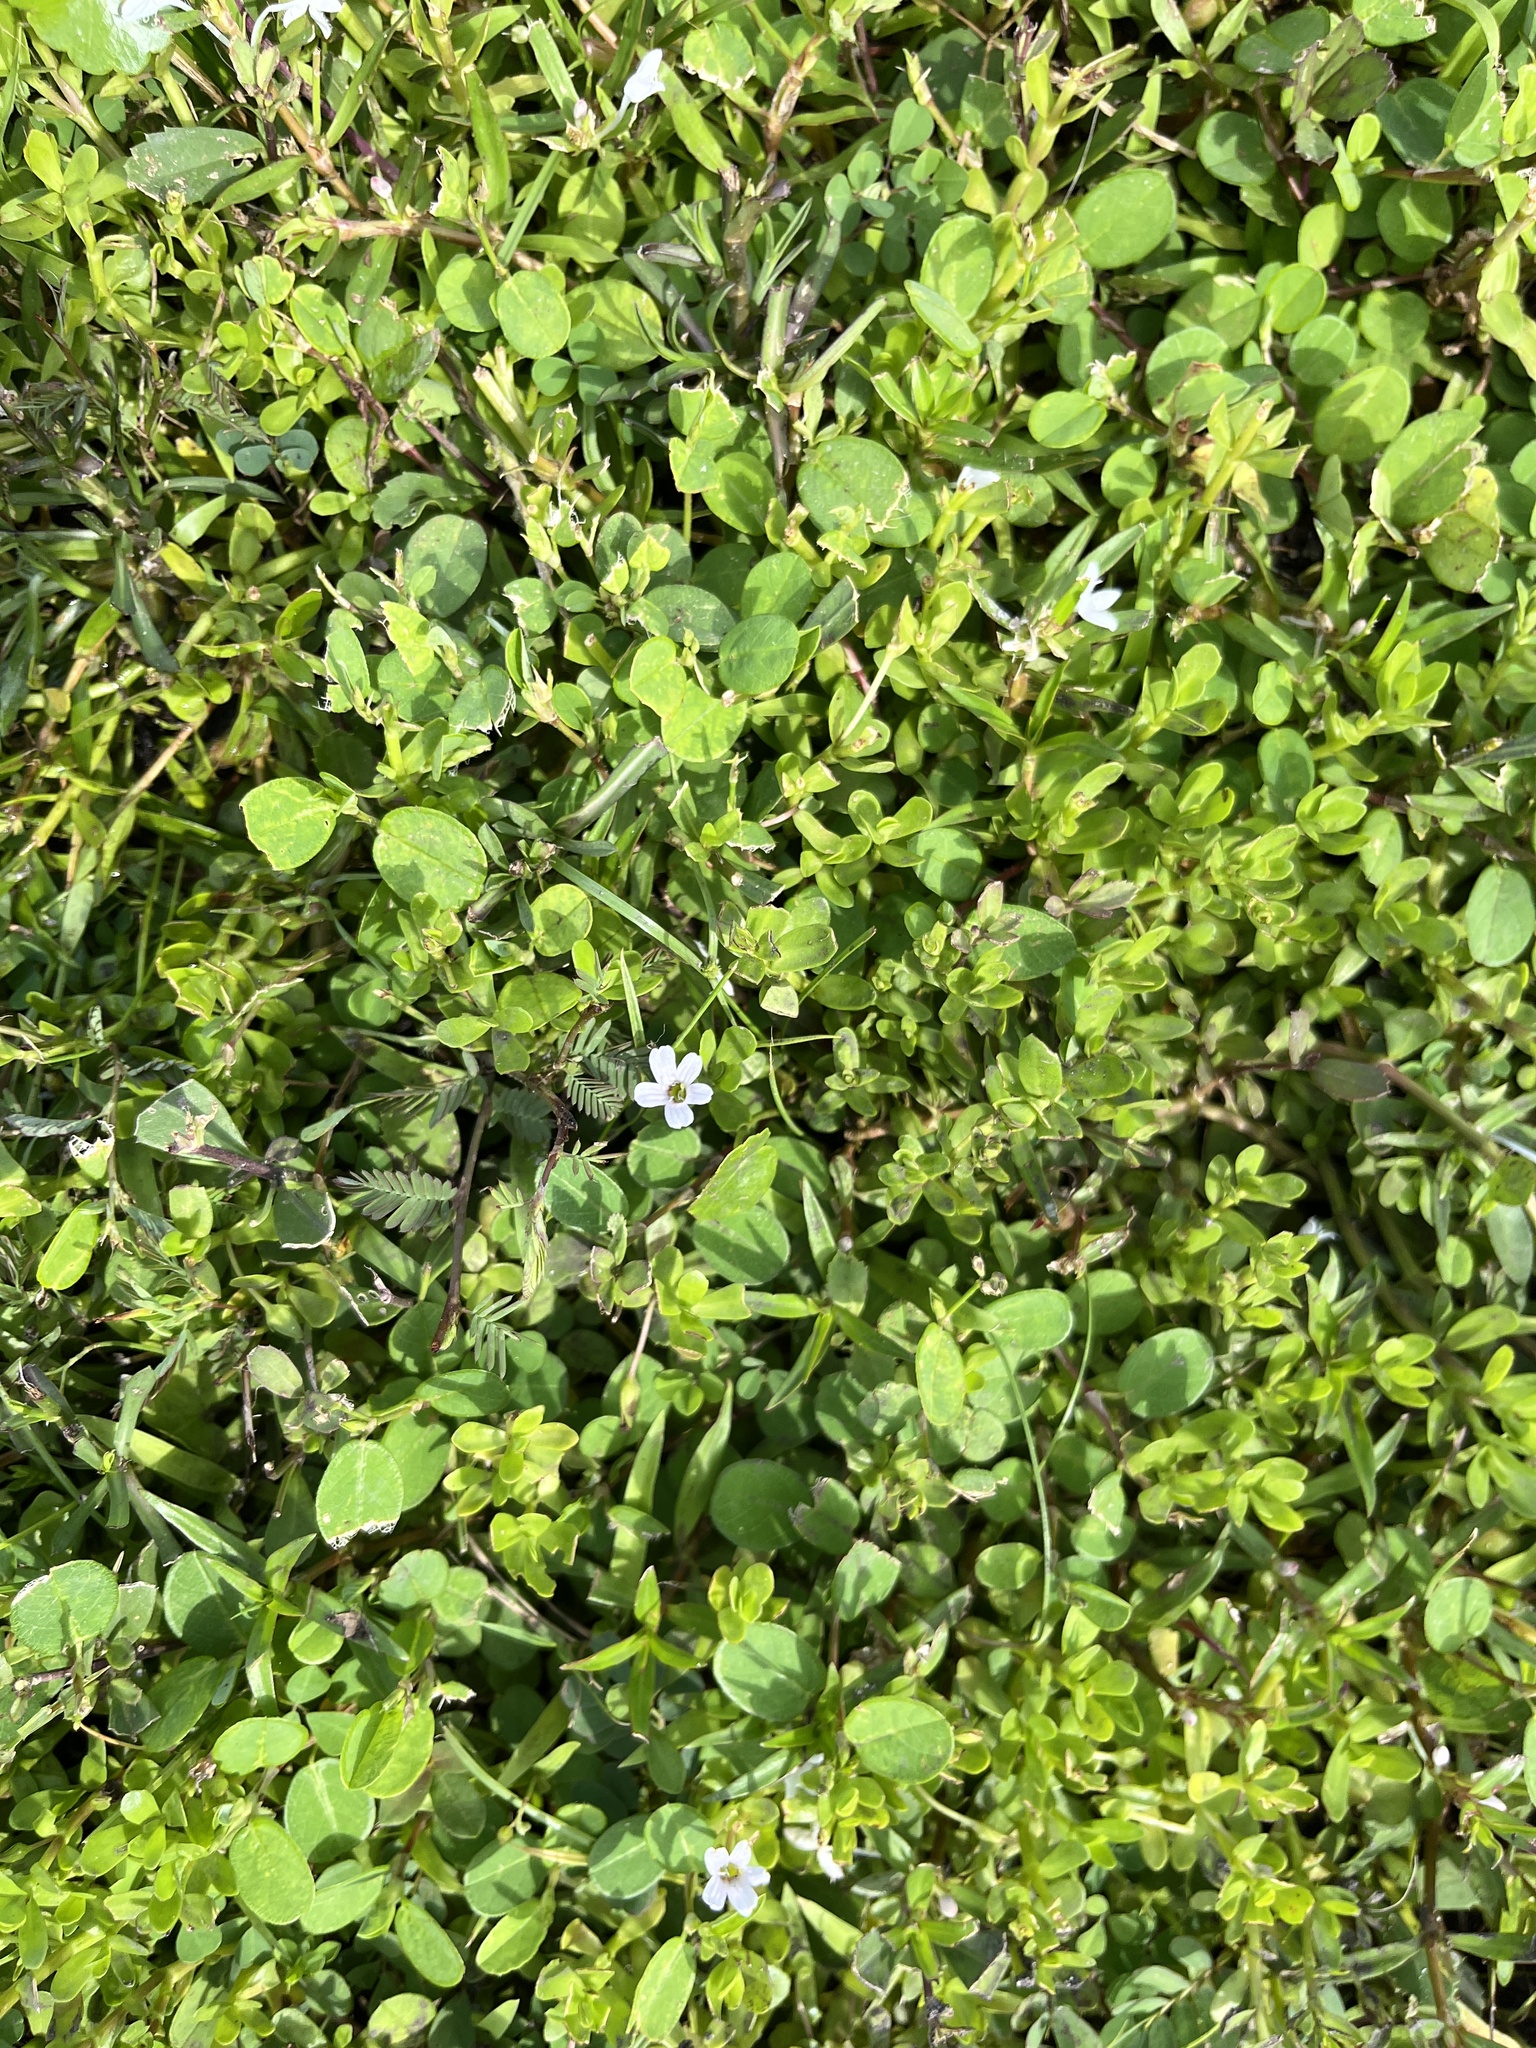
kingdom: Plantae
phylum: Tracheophyta
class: Magnoliopsida
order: Lamiales
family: Plantaginaceae
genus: Bacopa
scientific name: Bacopa monnieri
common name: Indian-pennywort
